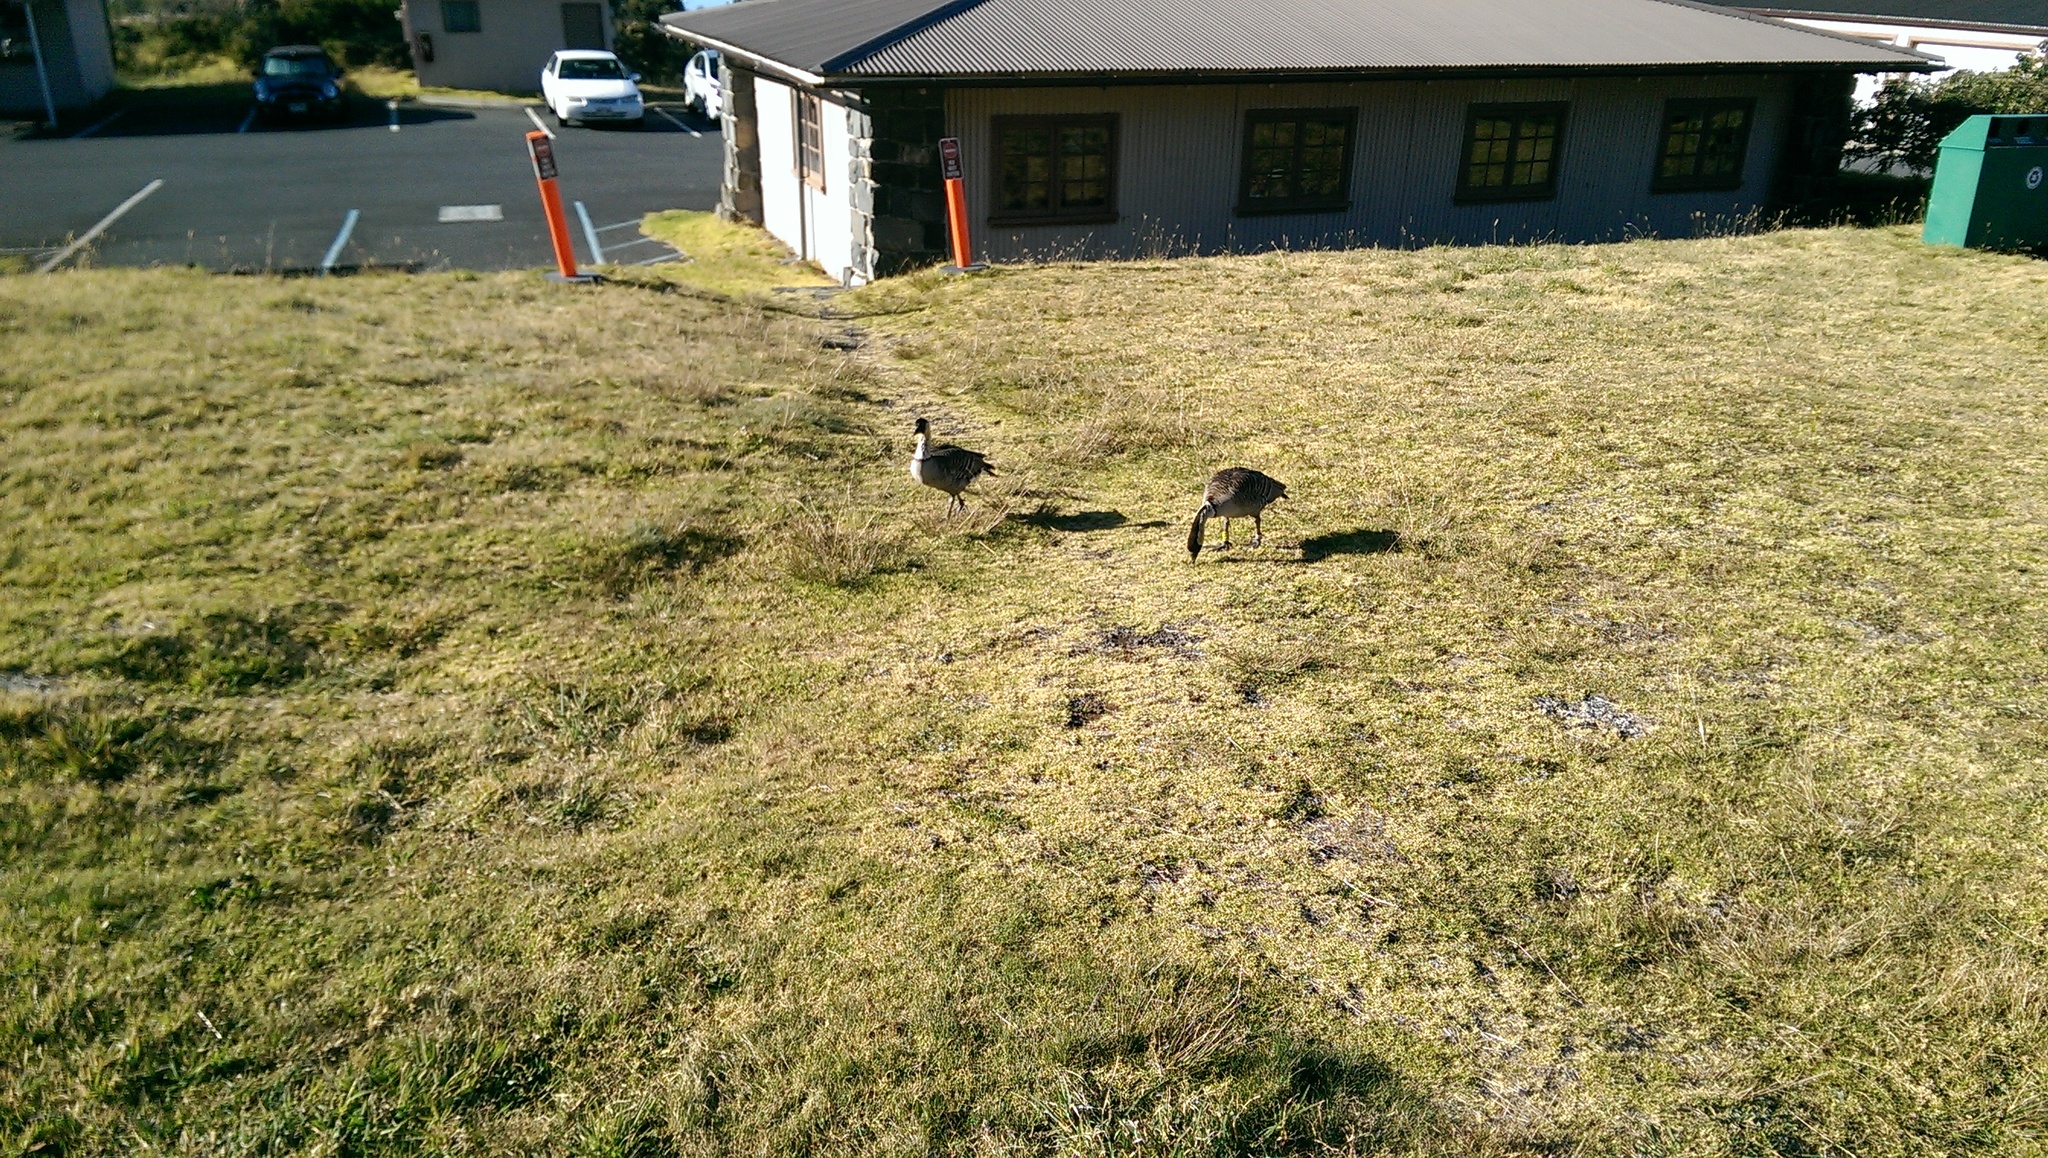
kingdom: Animalia
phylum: Chordata
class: Aves
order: Anseriformes
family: Anatidae
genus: Branta
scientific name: Branta sandvicensis
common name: Nene
